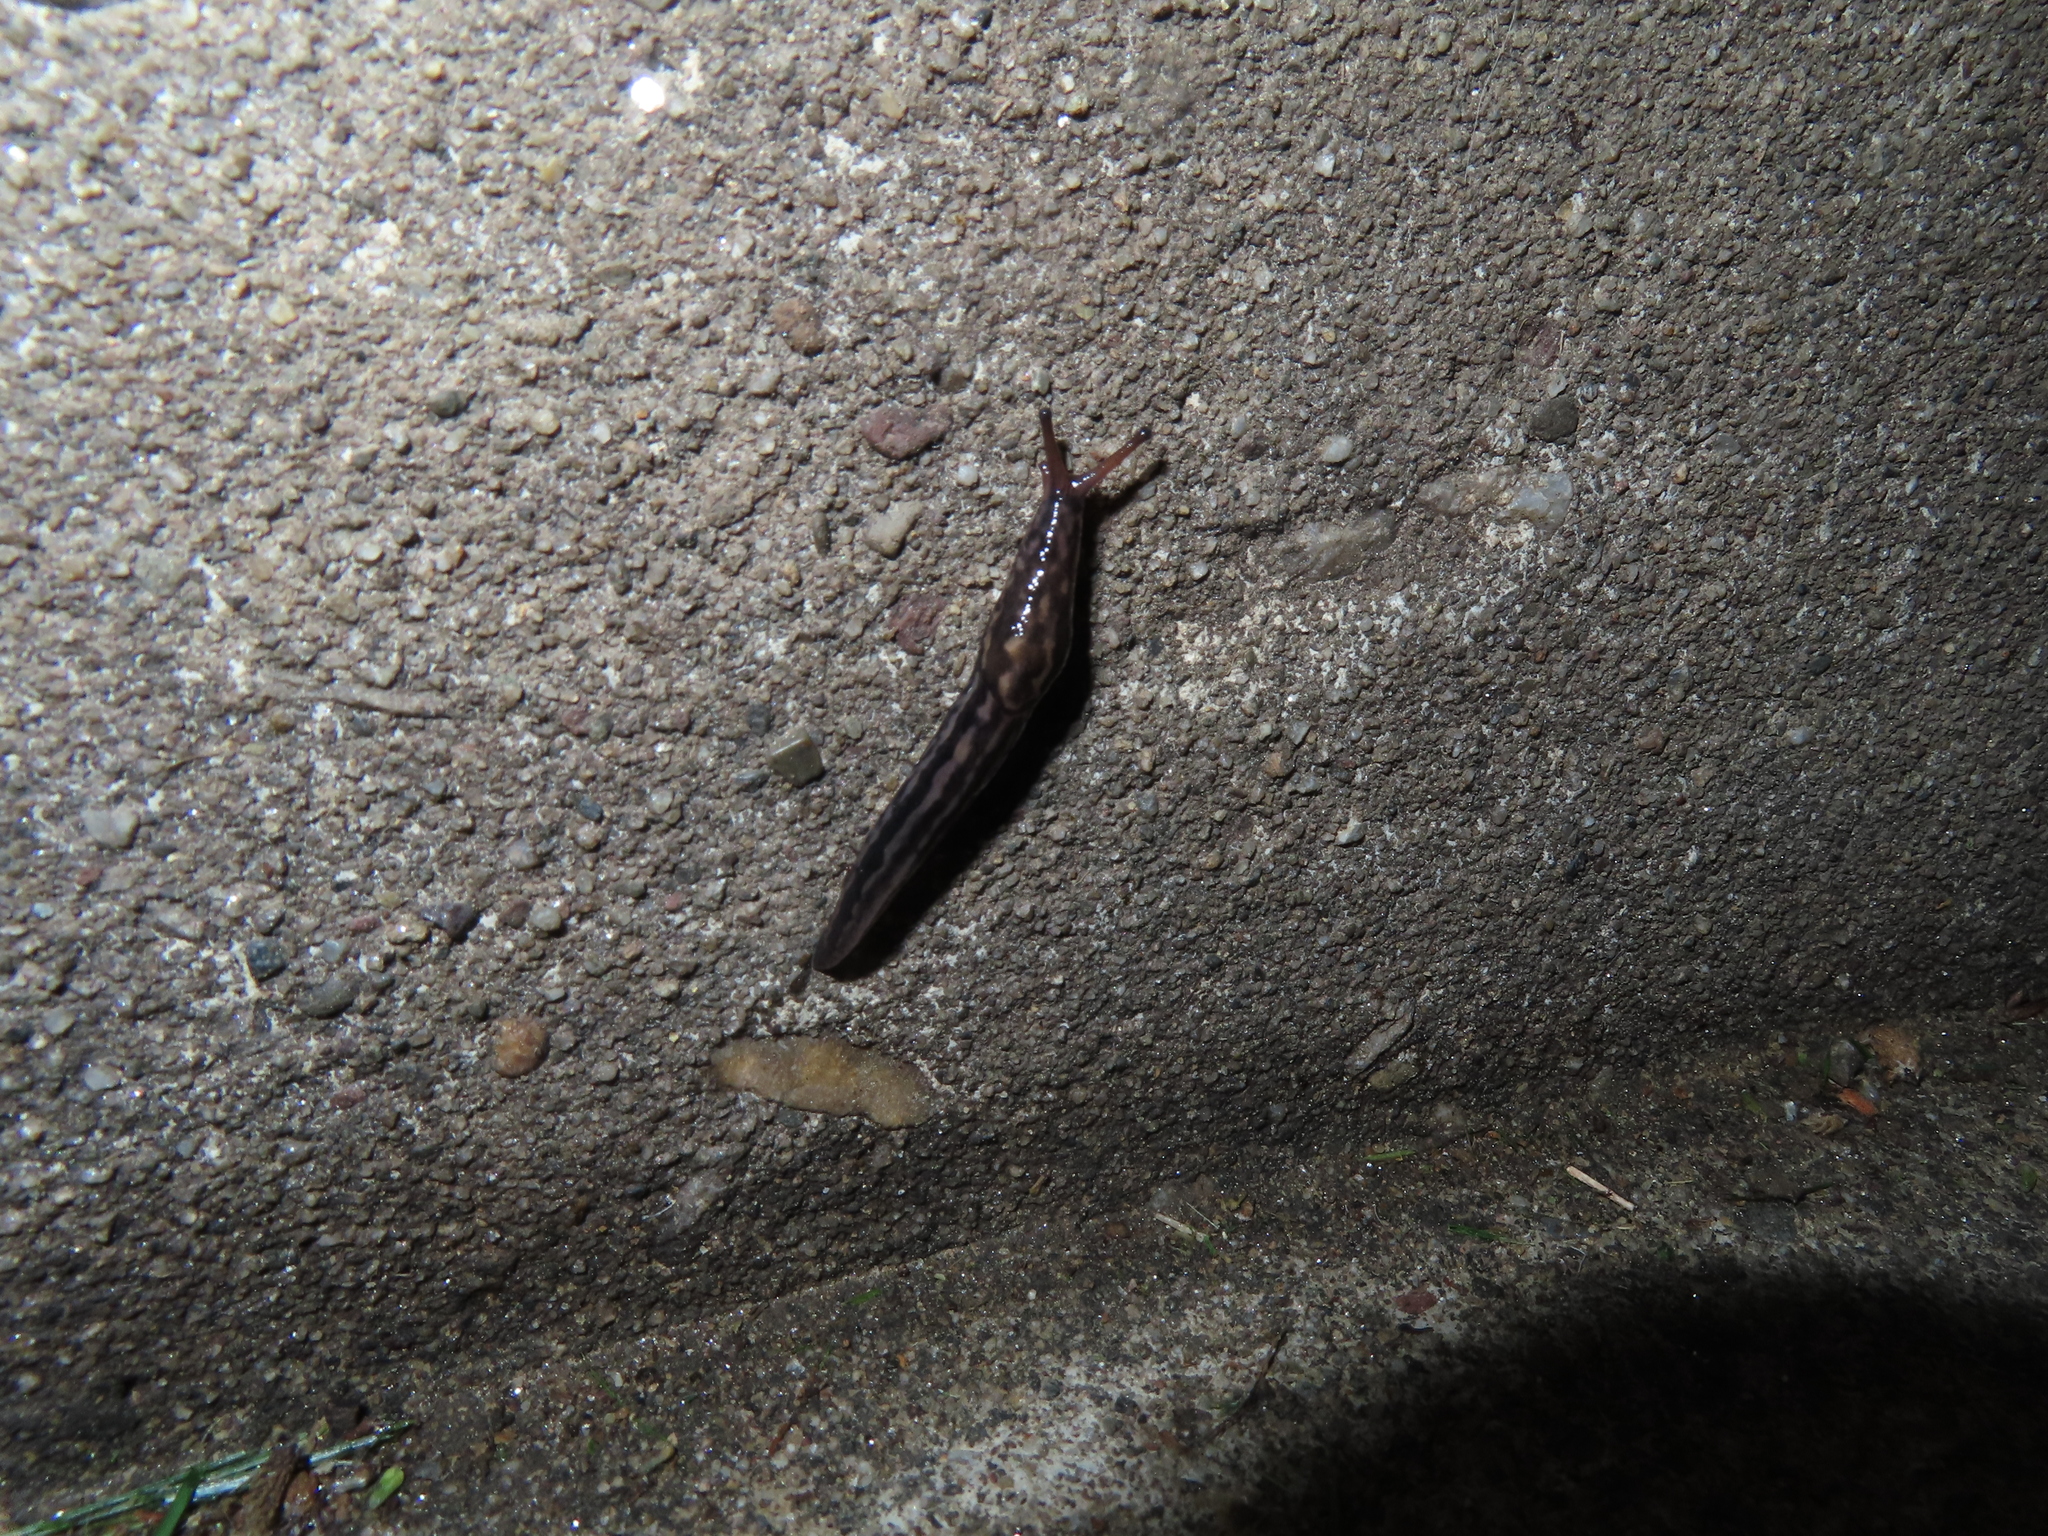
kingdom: Animalia
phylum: Mollusca
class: Gastropoda
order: Stylommatophora
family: Limacidae
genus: Limax
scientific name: Limax maximus
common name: Great grey slug
